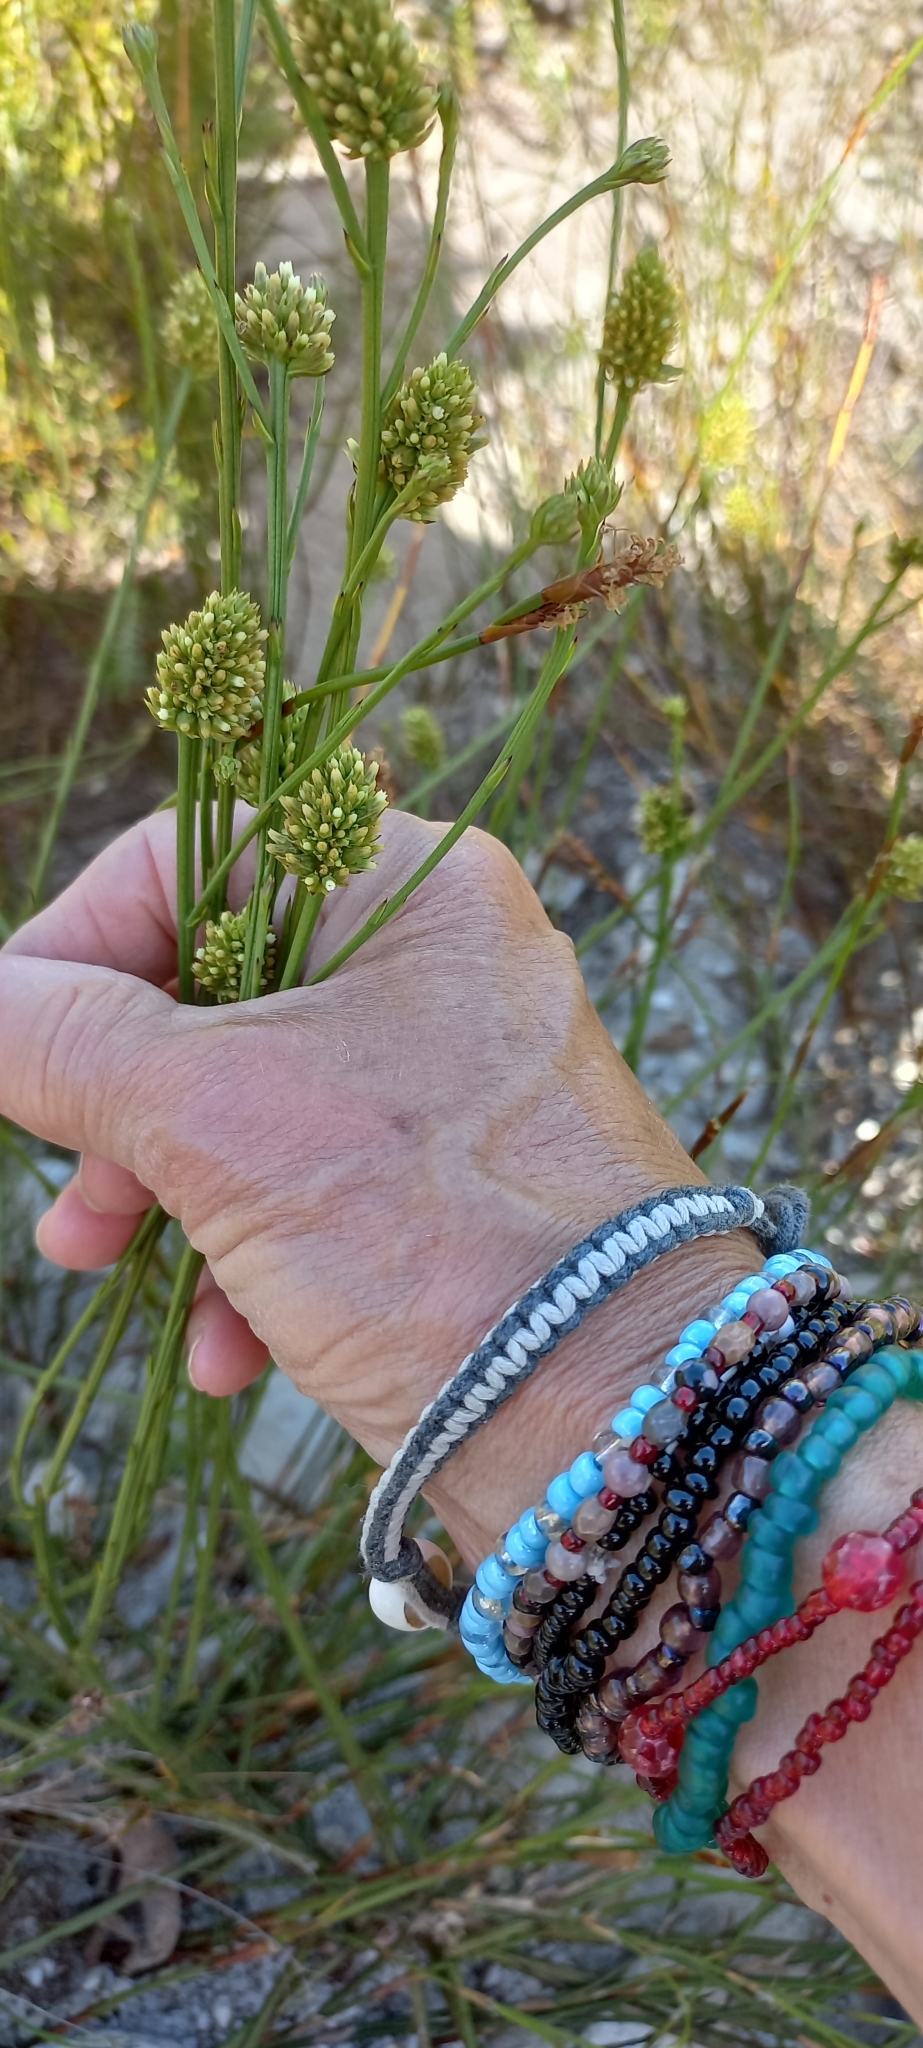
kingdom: Plantae
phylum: Tracheophyta
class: Magnoliopsida
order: Santalales
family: Thesiaceae
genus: Thesium
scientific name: Thesium aggregatum
